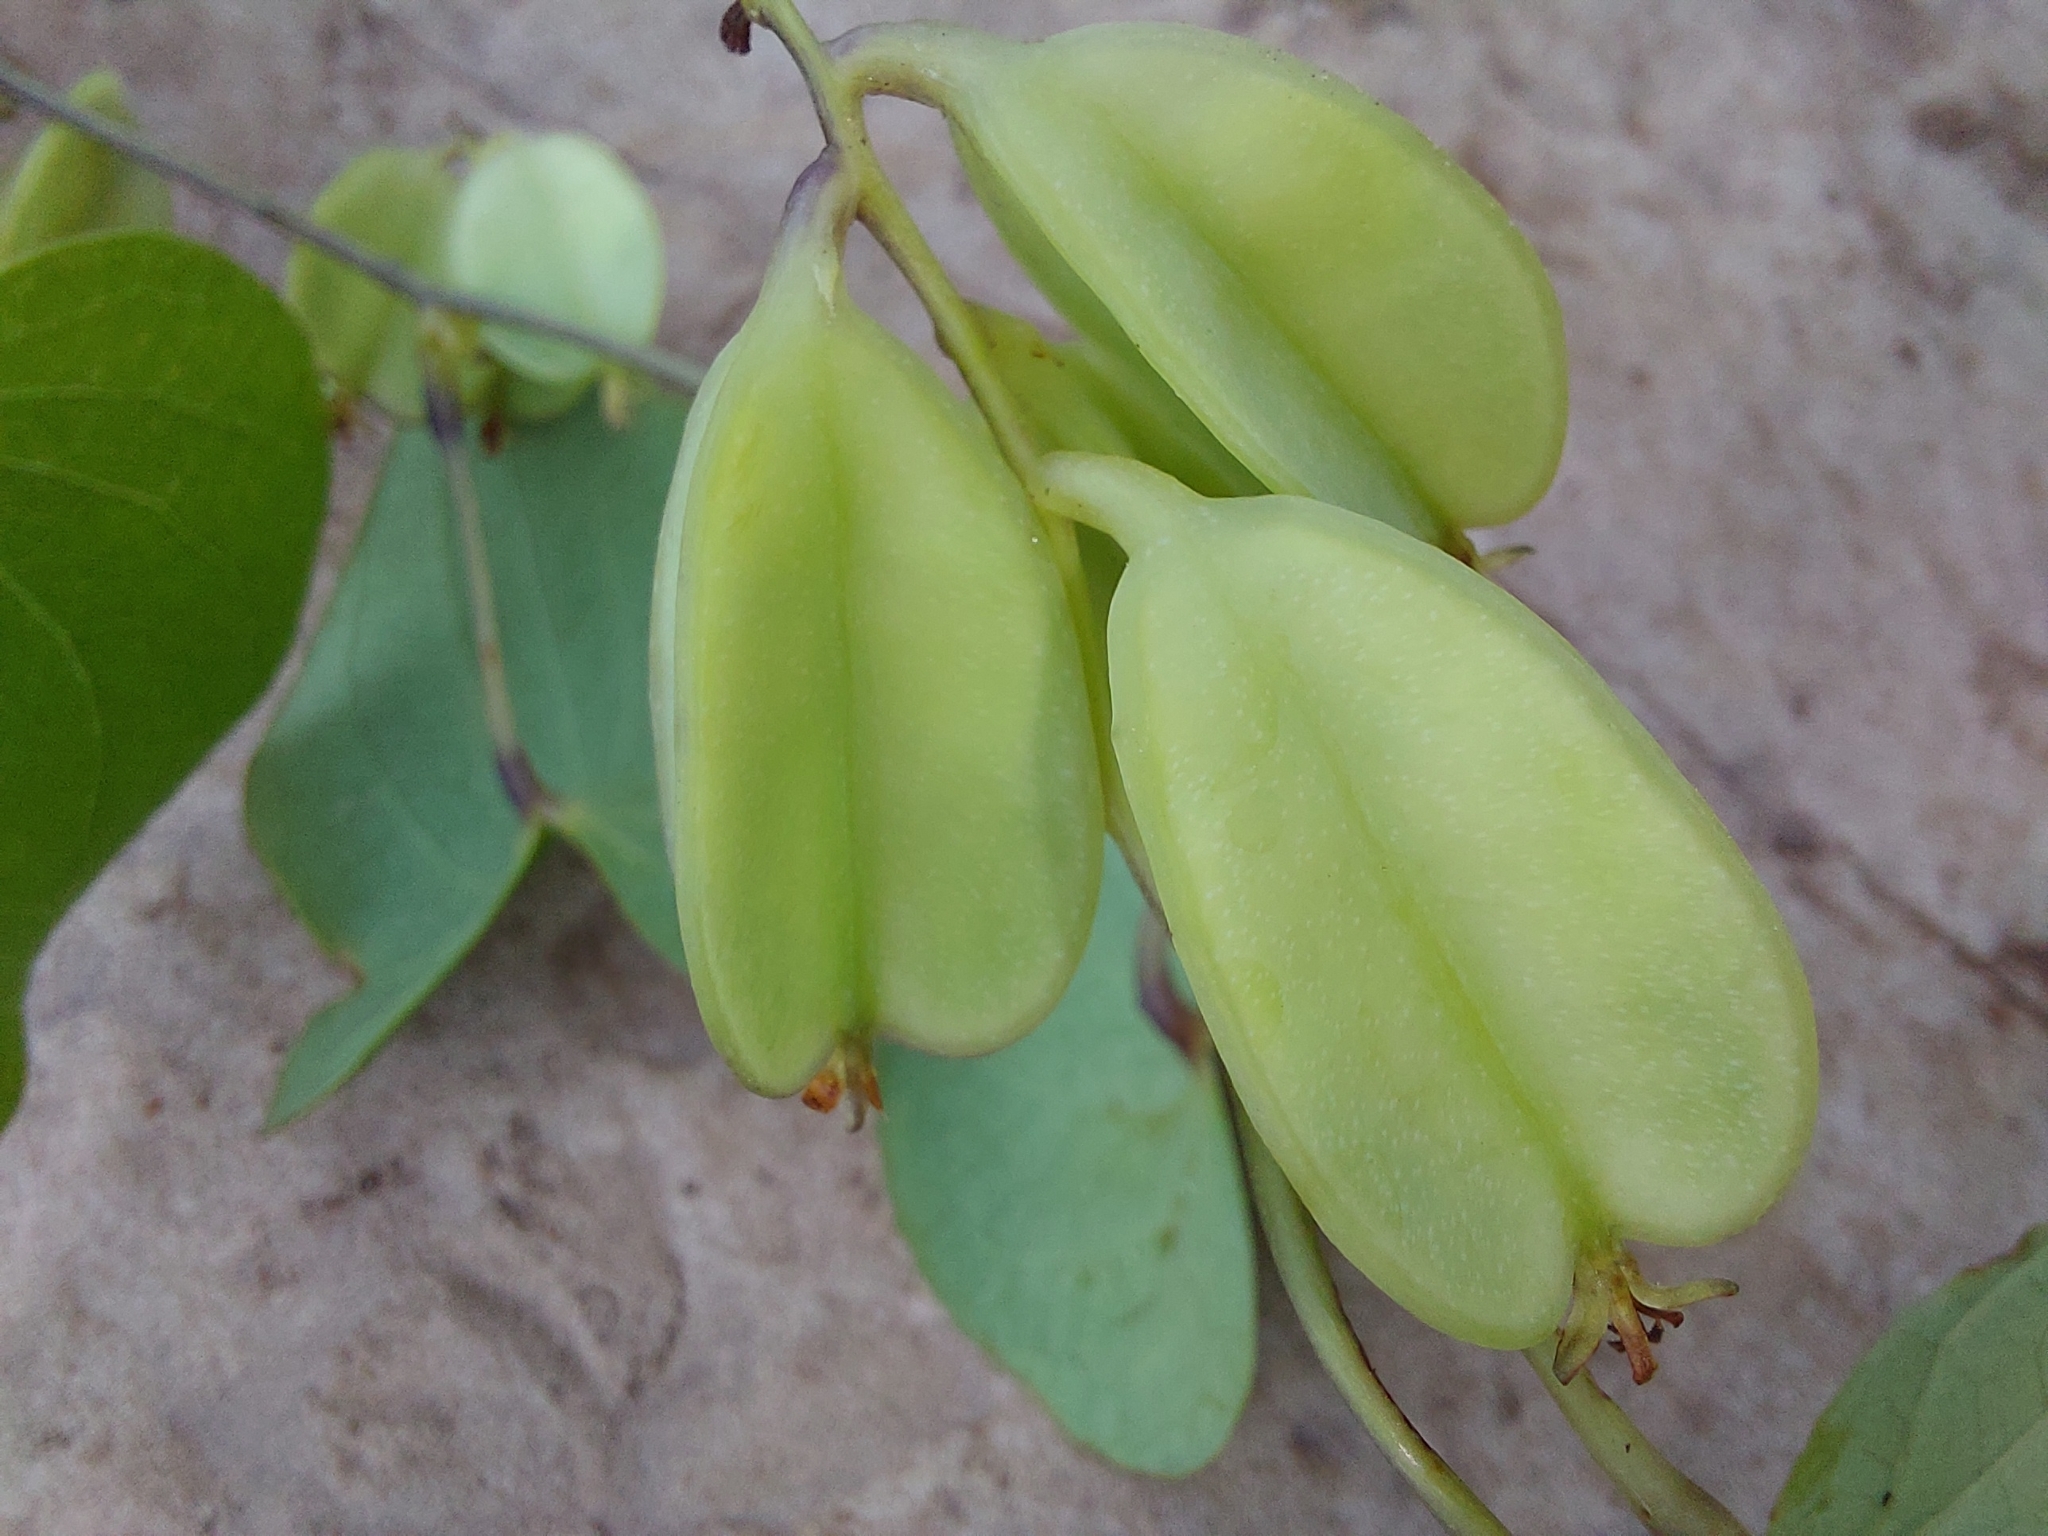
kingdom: Plantae
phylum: Tracheophyta
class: Liliopsida
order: Dioscoreales
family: Dioscoreaceae
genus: Dioscorea
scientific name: Dioscorea sylvatica
